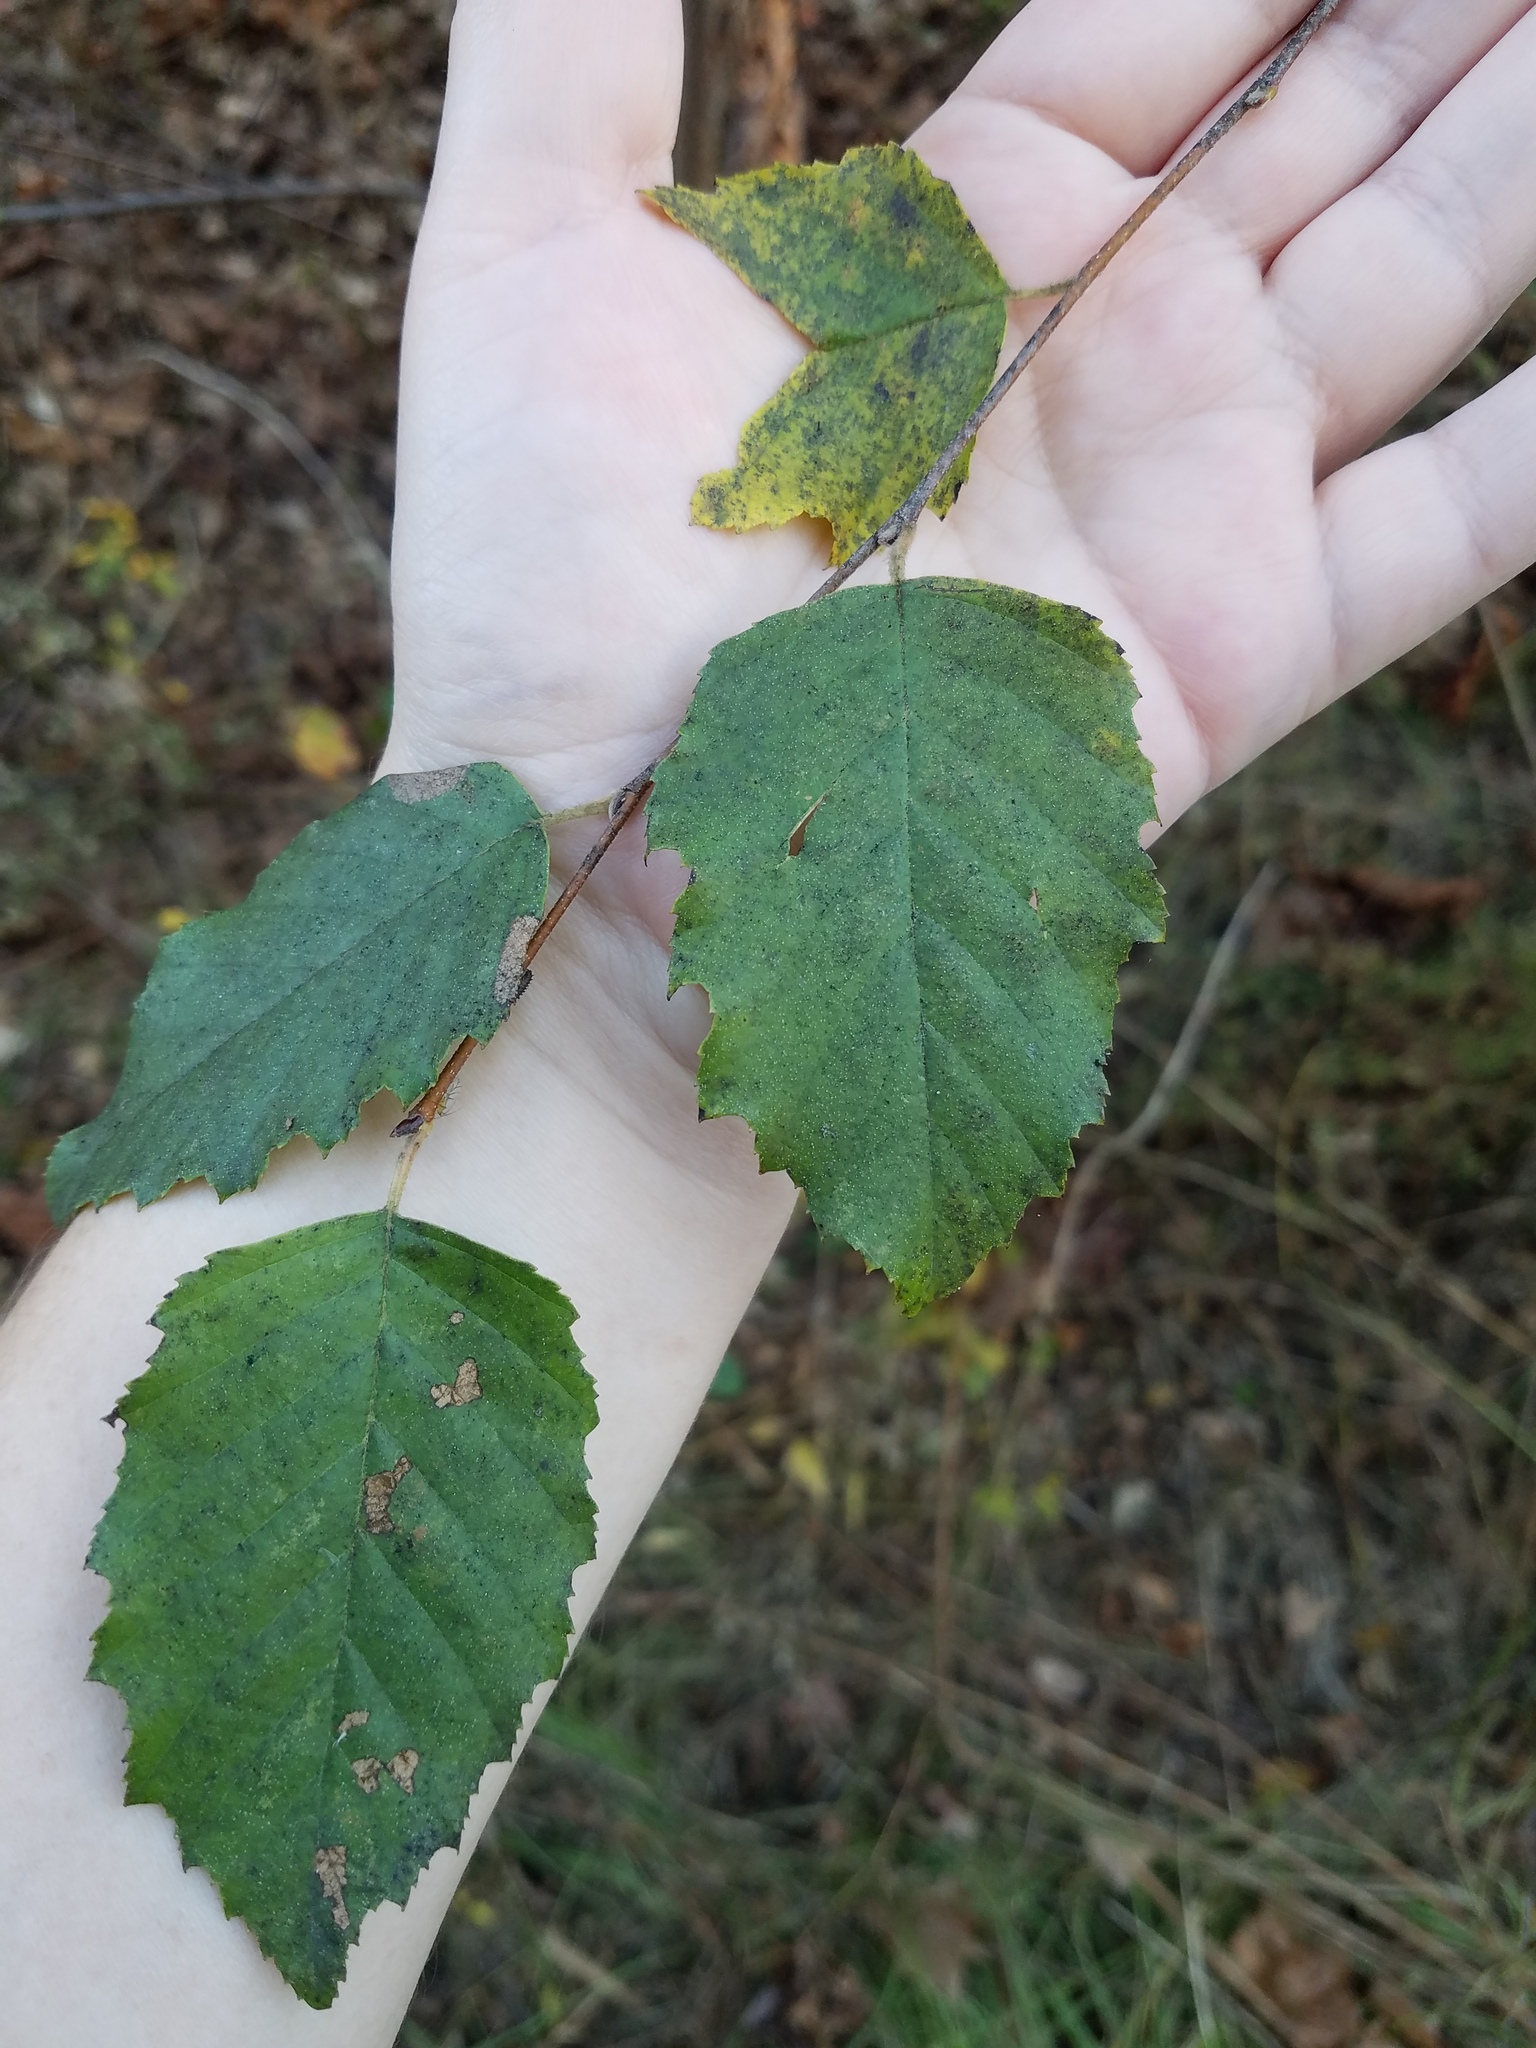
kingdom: Plantae
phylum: Tracheophyta
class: Magnoliopsida
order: Fagales
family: Betulaceae
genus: Betula
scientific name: Betula nigra
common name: Black birch
